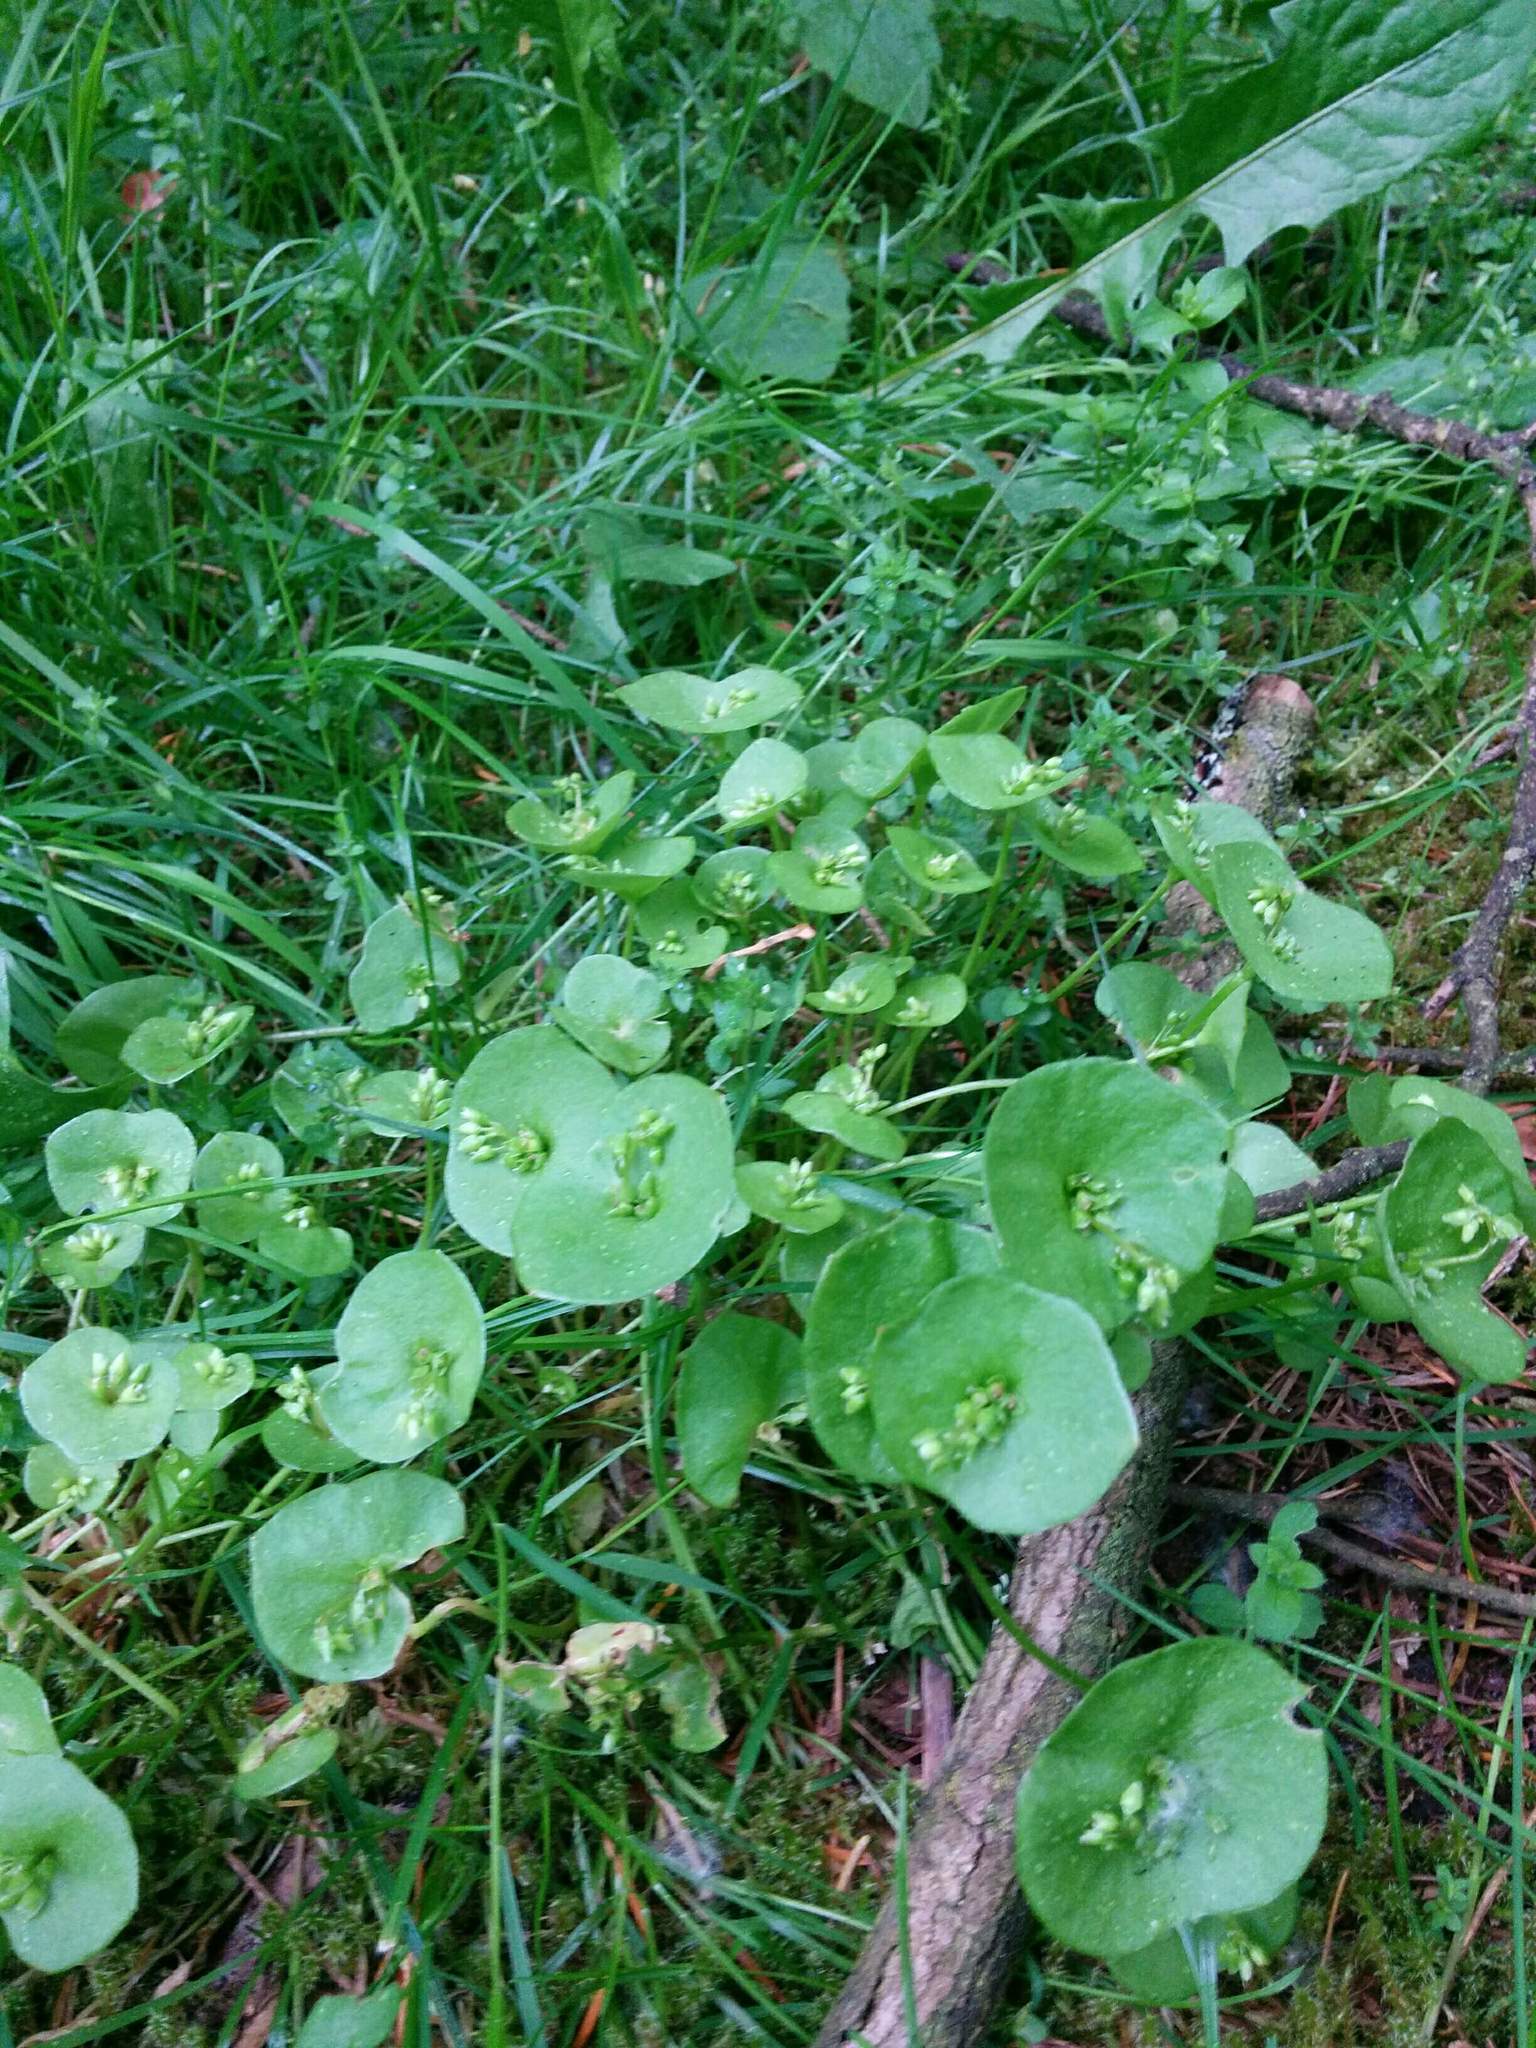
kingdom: Plantae
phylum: Tracheophyta
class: Magnoliopsida
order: Caryophyllales
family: Montiaceae
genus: Claytonia
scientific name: Claytonia perfoliata
